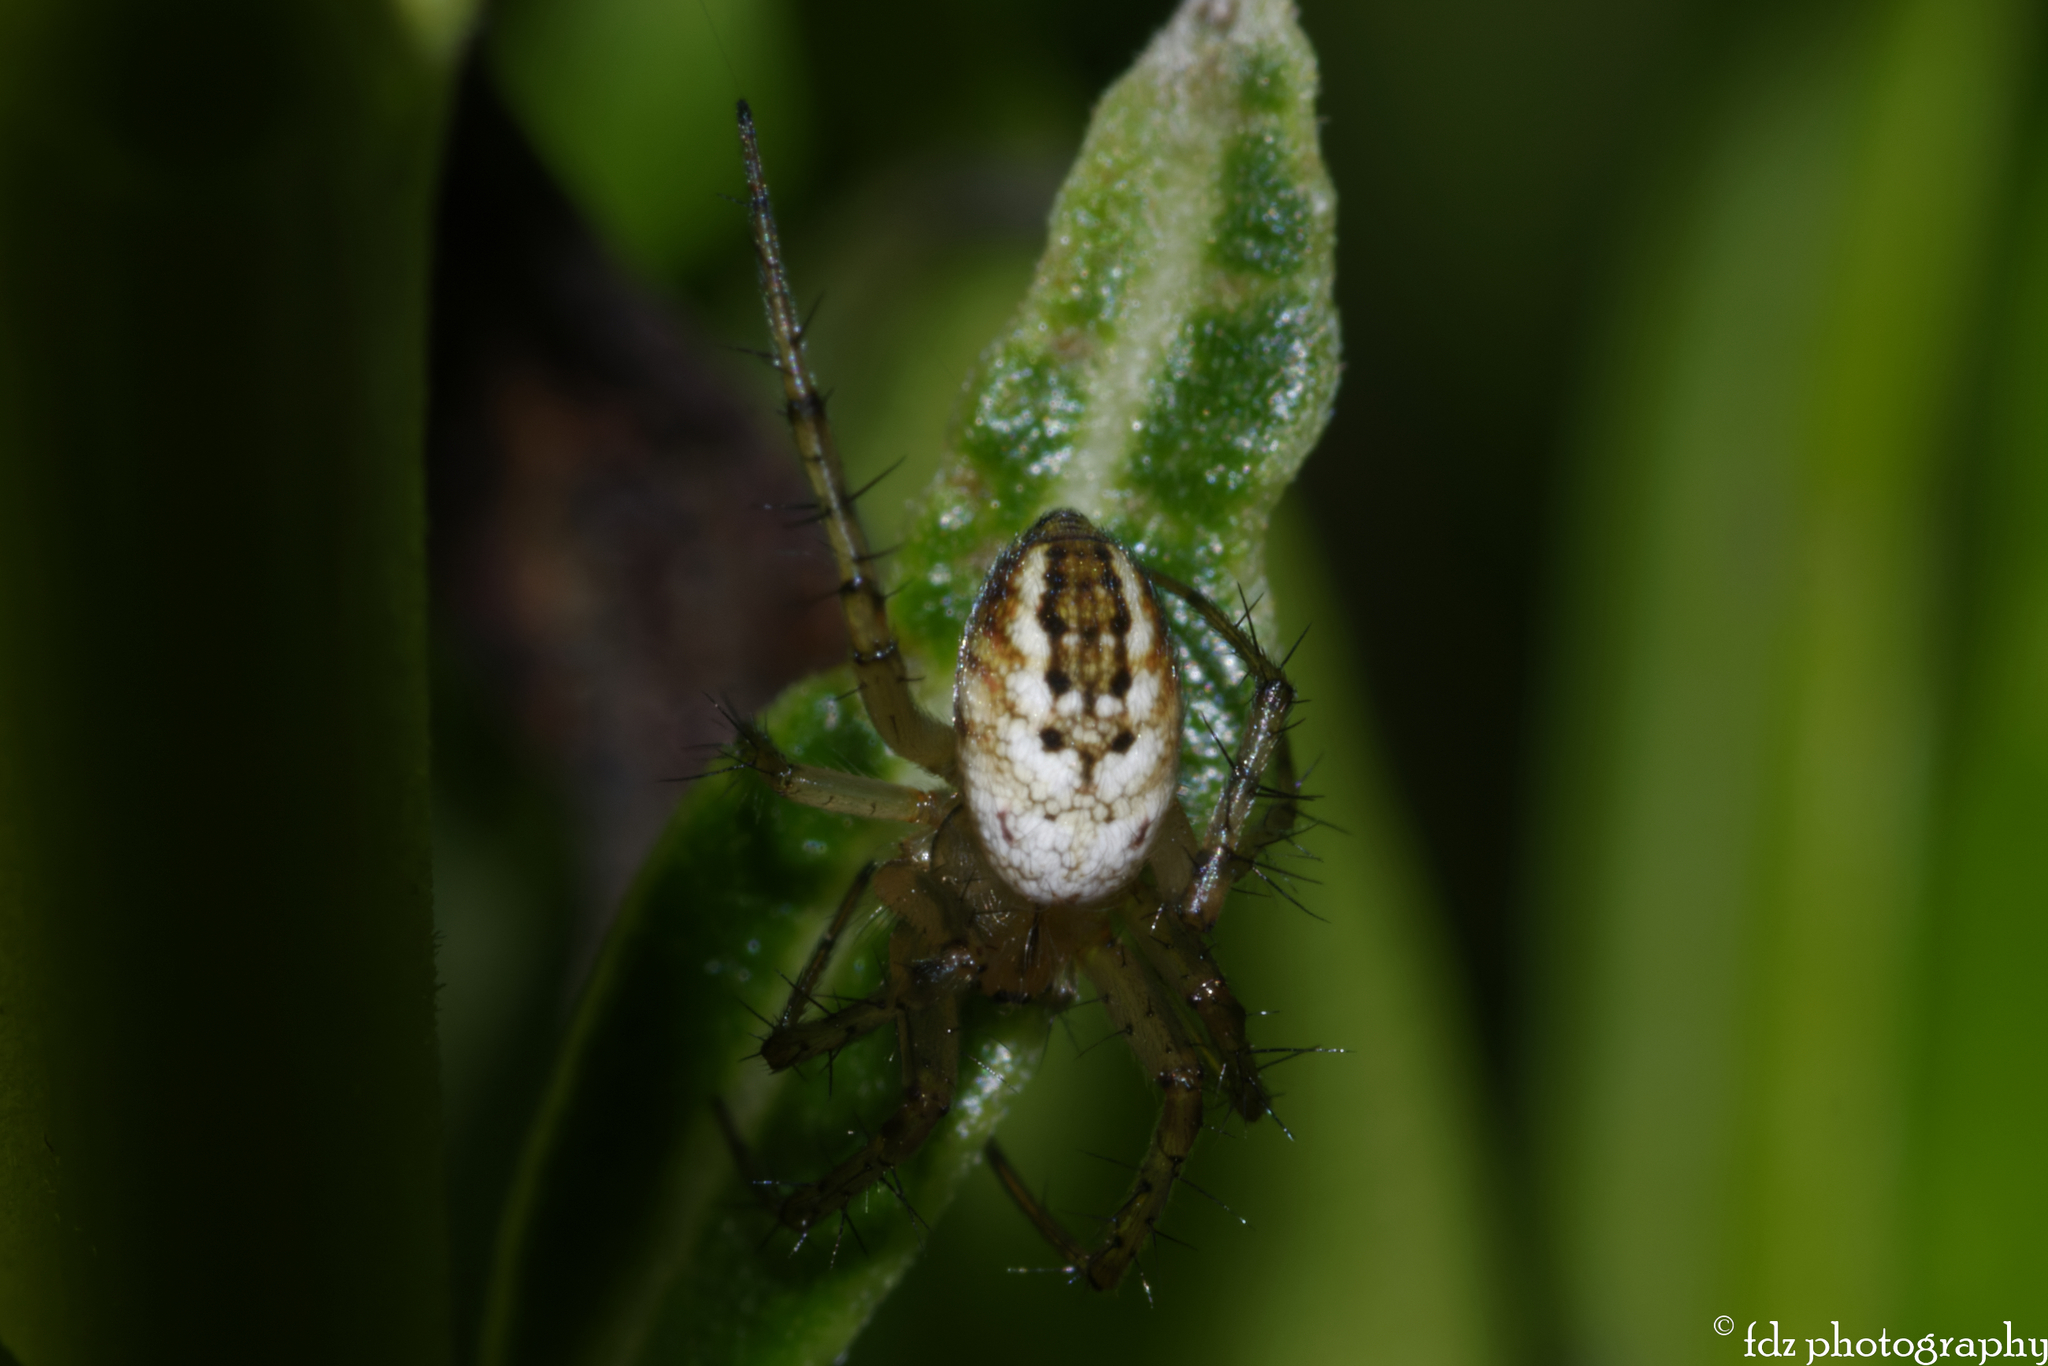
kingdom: Animalia
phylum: Arthropoda
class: Arachnida
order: Araneae
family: Araneidae
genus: Mangora
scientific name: Mangora acalypha
